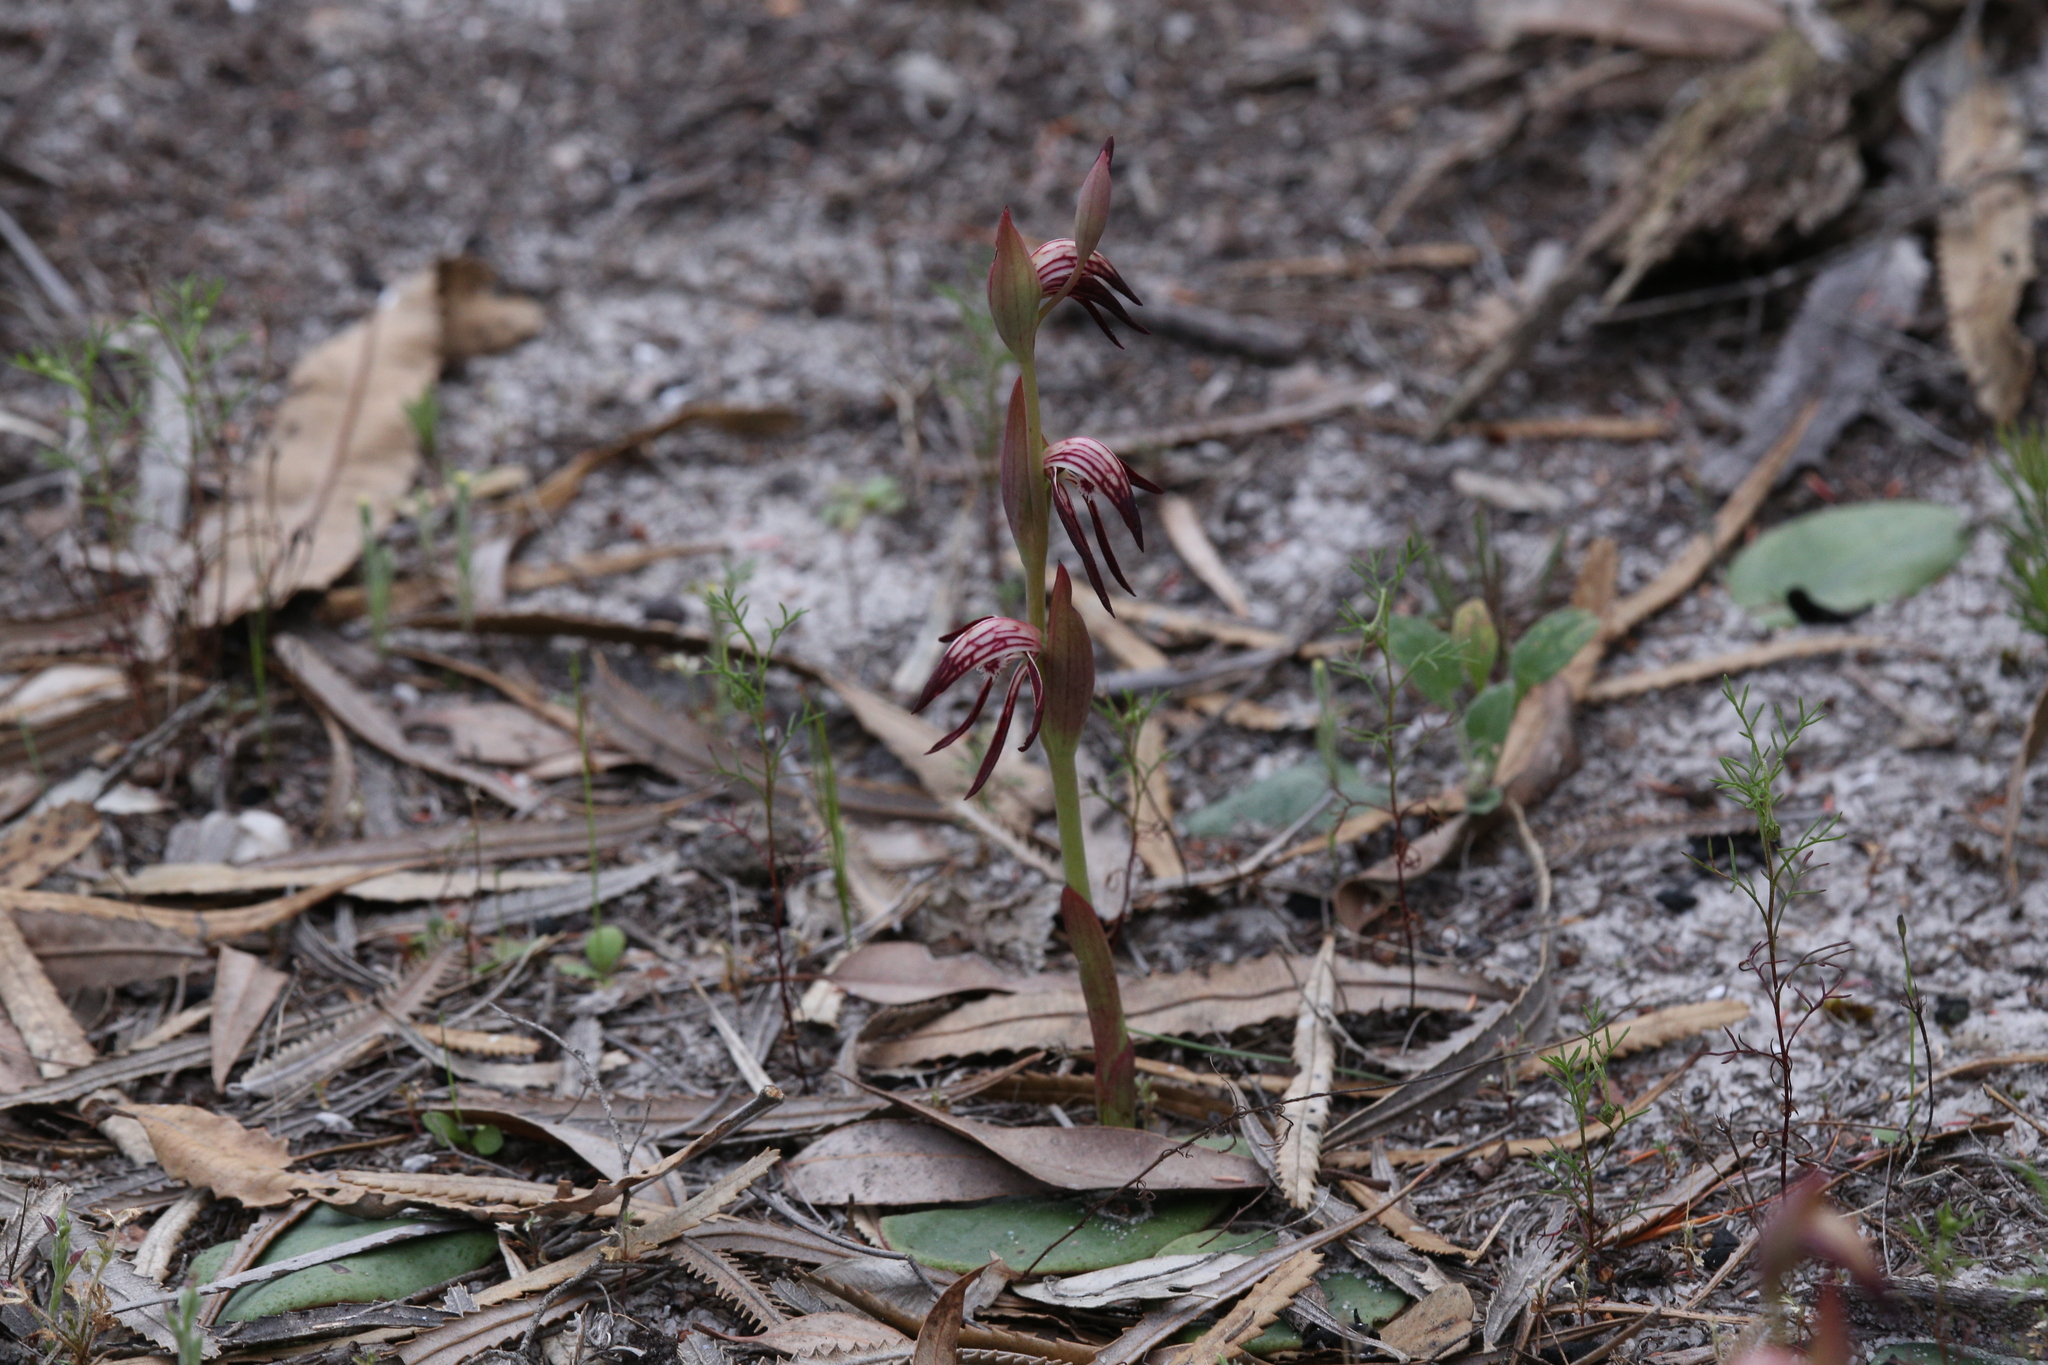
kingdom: Plantae
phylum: Tracheophyta
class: Liliopsida
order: Asparagales
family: Orchidaceae
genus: Pyrorchis
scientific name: Pyrorchis nigricans
